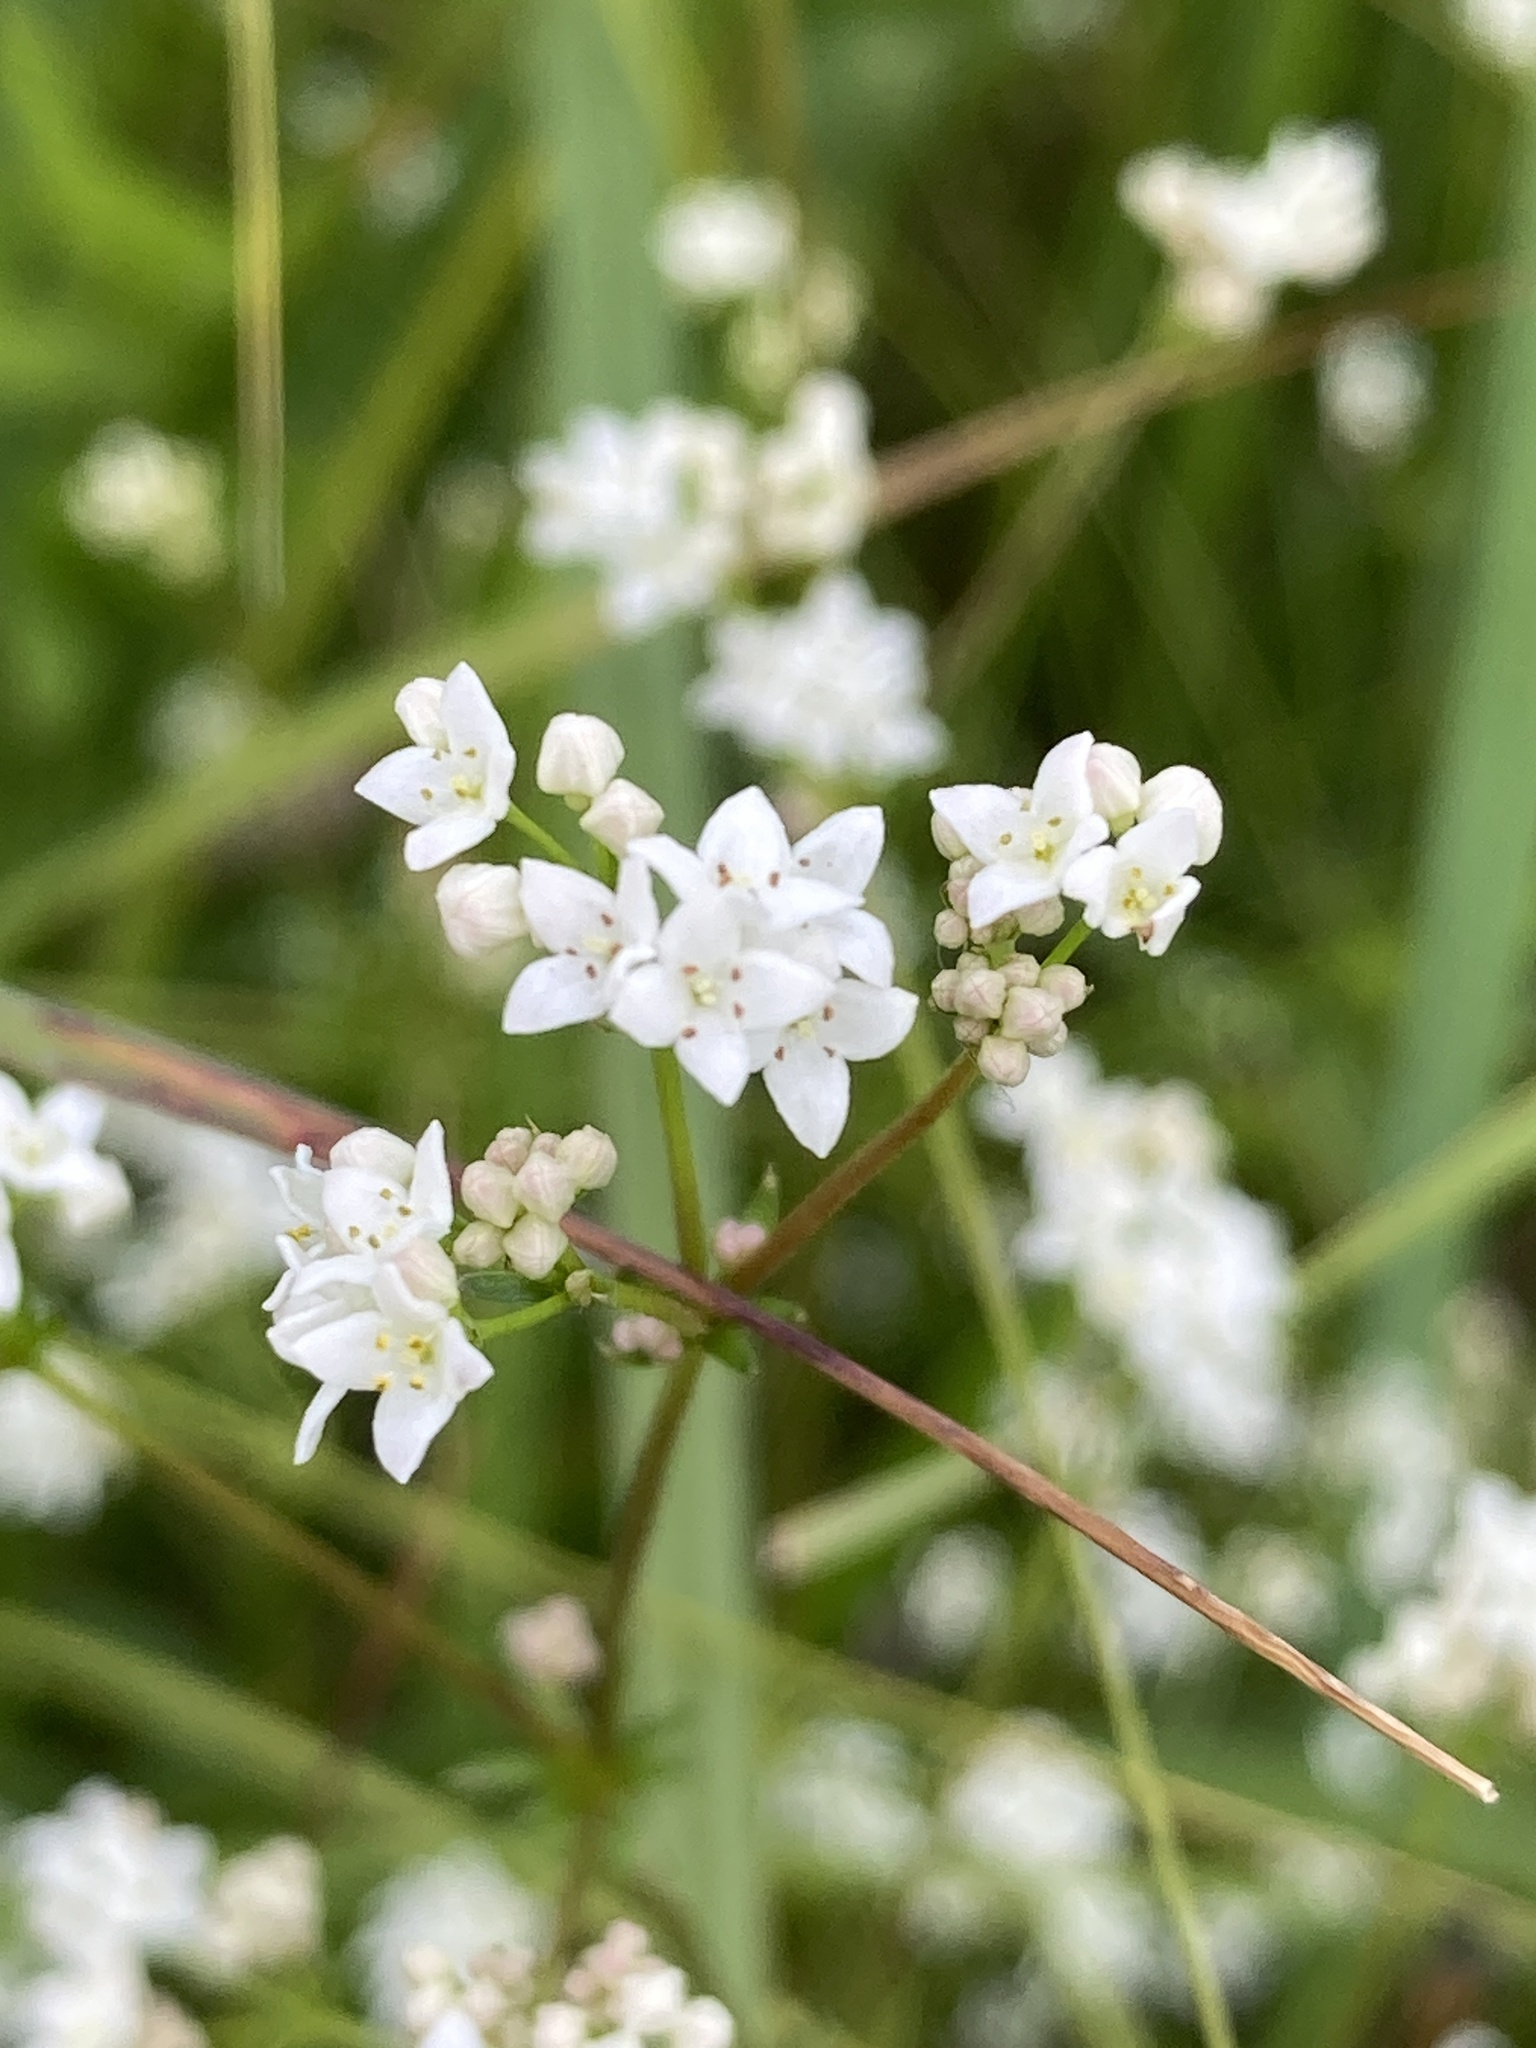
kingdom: Plantae
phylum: Tracheophyta
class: Magnoliopsida
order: Gentianales
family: Rubiaceae
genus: Galium
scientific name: Galium uliginosum
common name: Fen bedstraw
